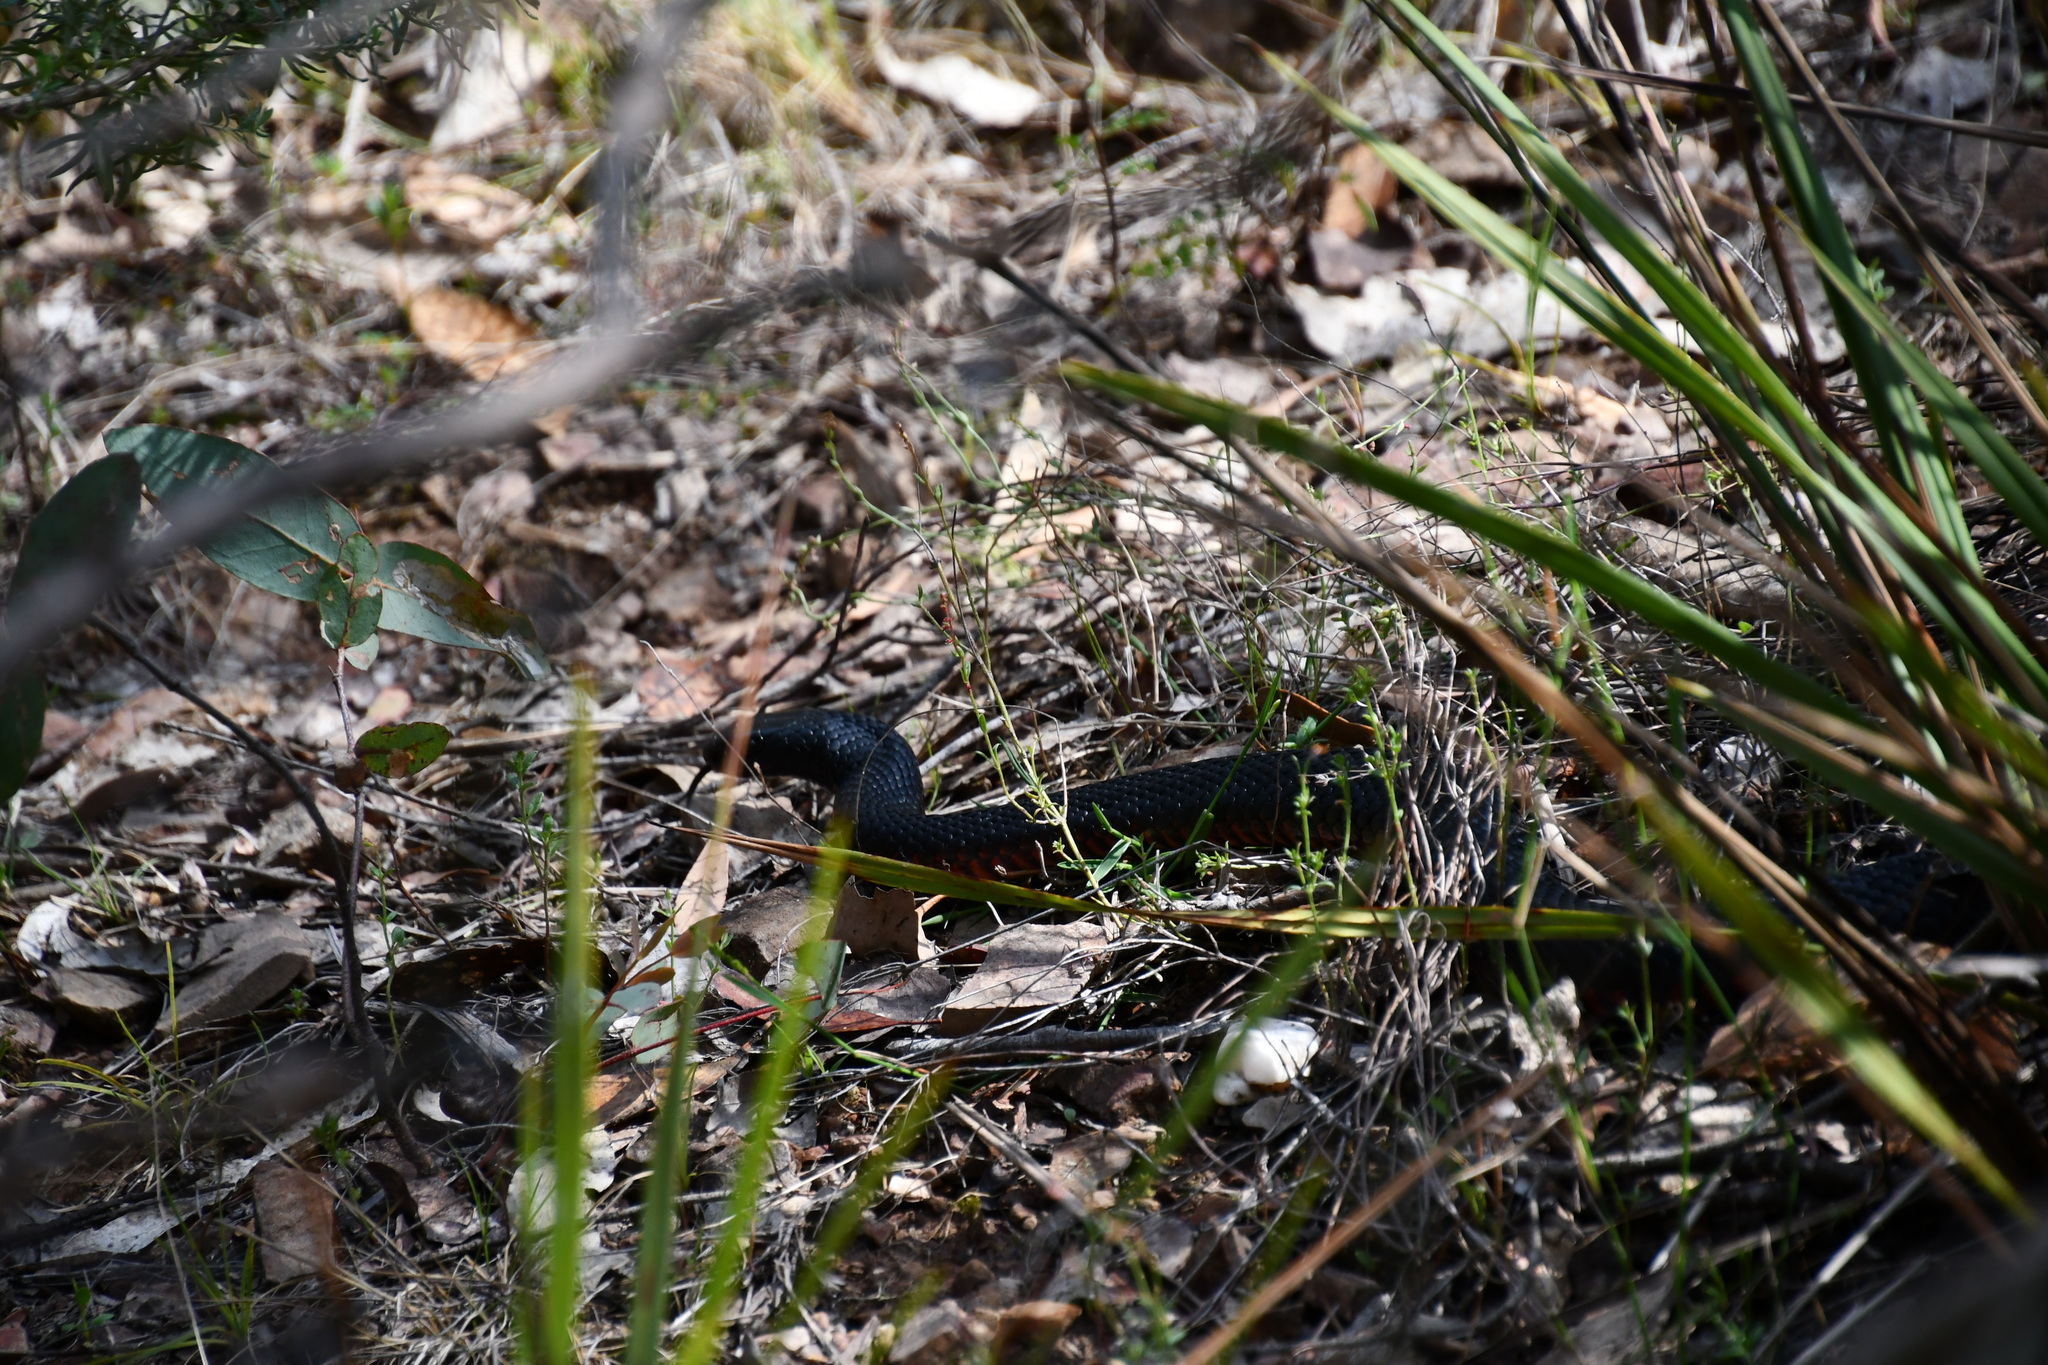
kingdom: Animalia
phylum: Chordata
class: Squamata
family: Elapidae
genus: Pseudechis
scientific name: Pseudechis porphyriacus
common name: Australian black snake
